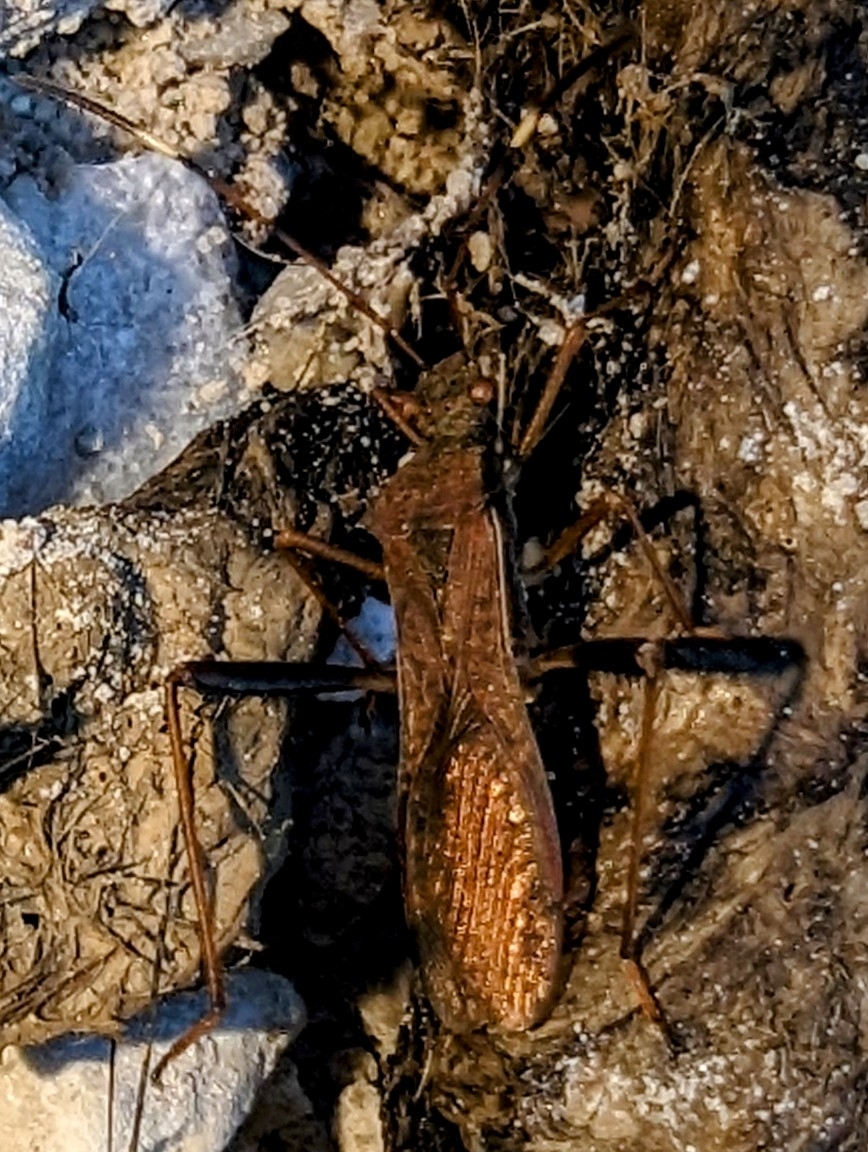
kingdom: Animalia
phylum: Arthropoda
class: Insecta
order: Hemiptera
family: Alydidae
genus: Megalotomus
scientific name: Megalotomus quinquespinosus
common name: Lupine bug
